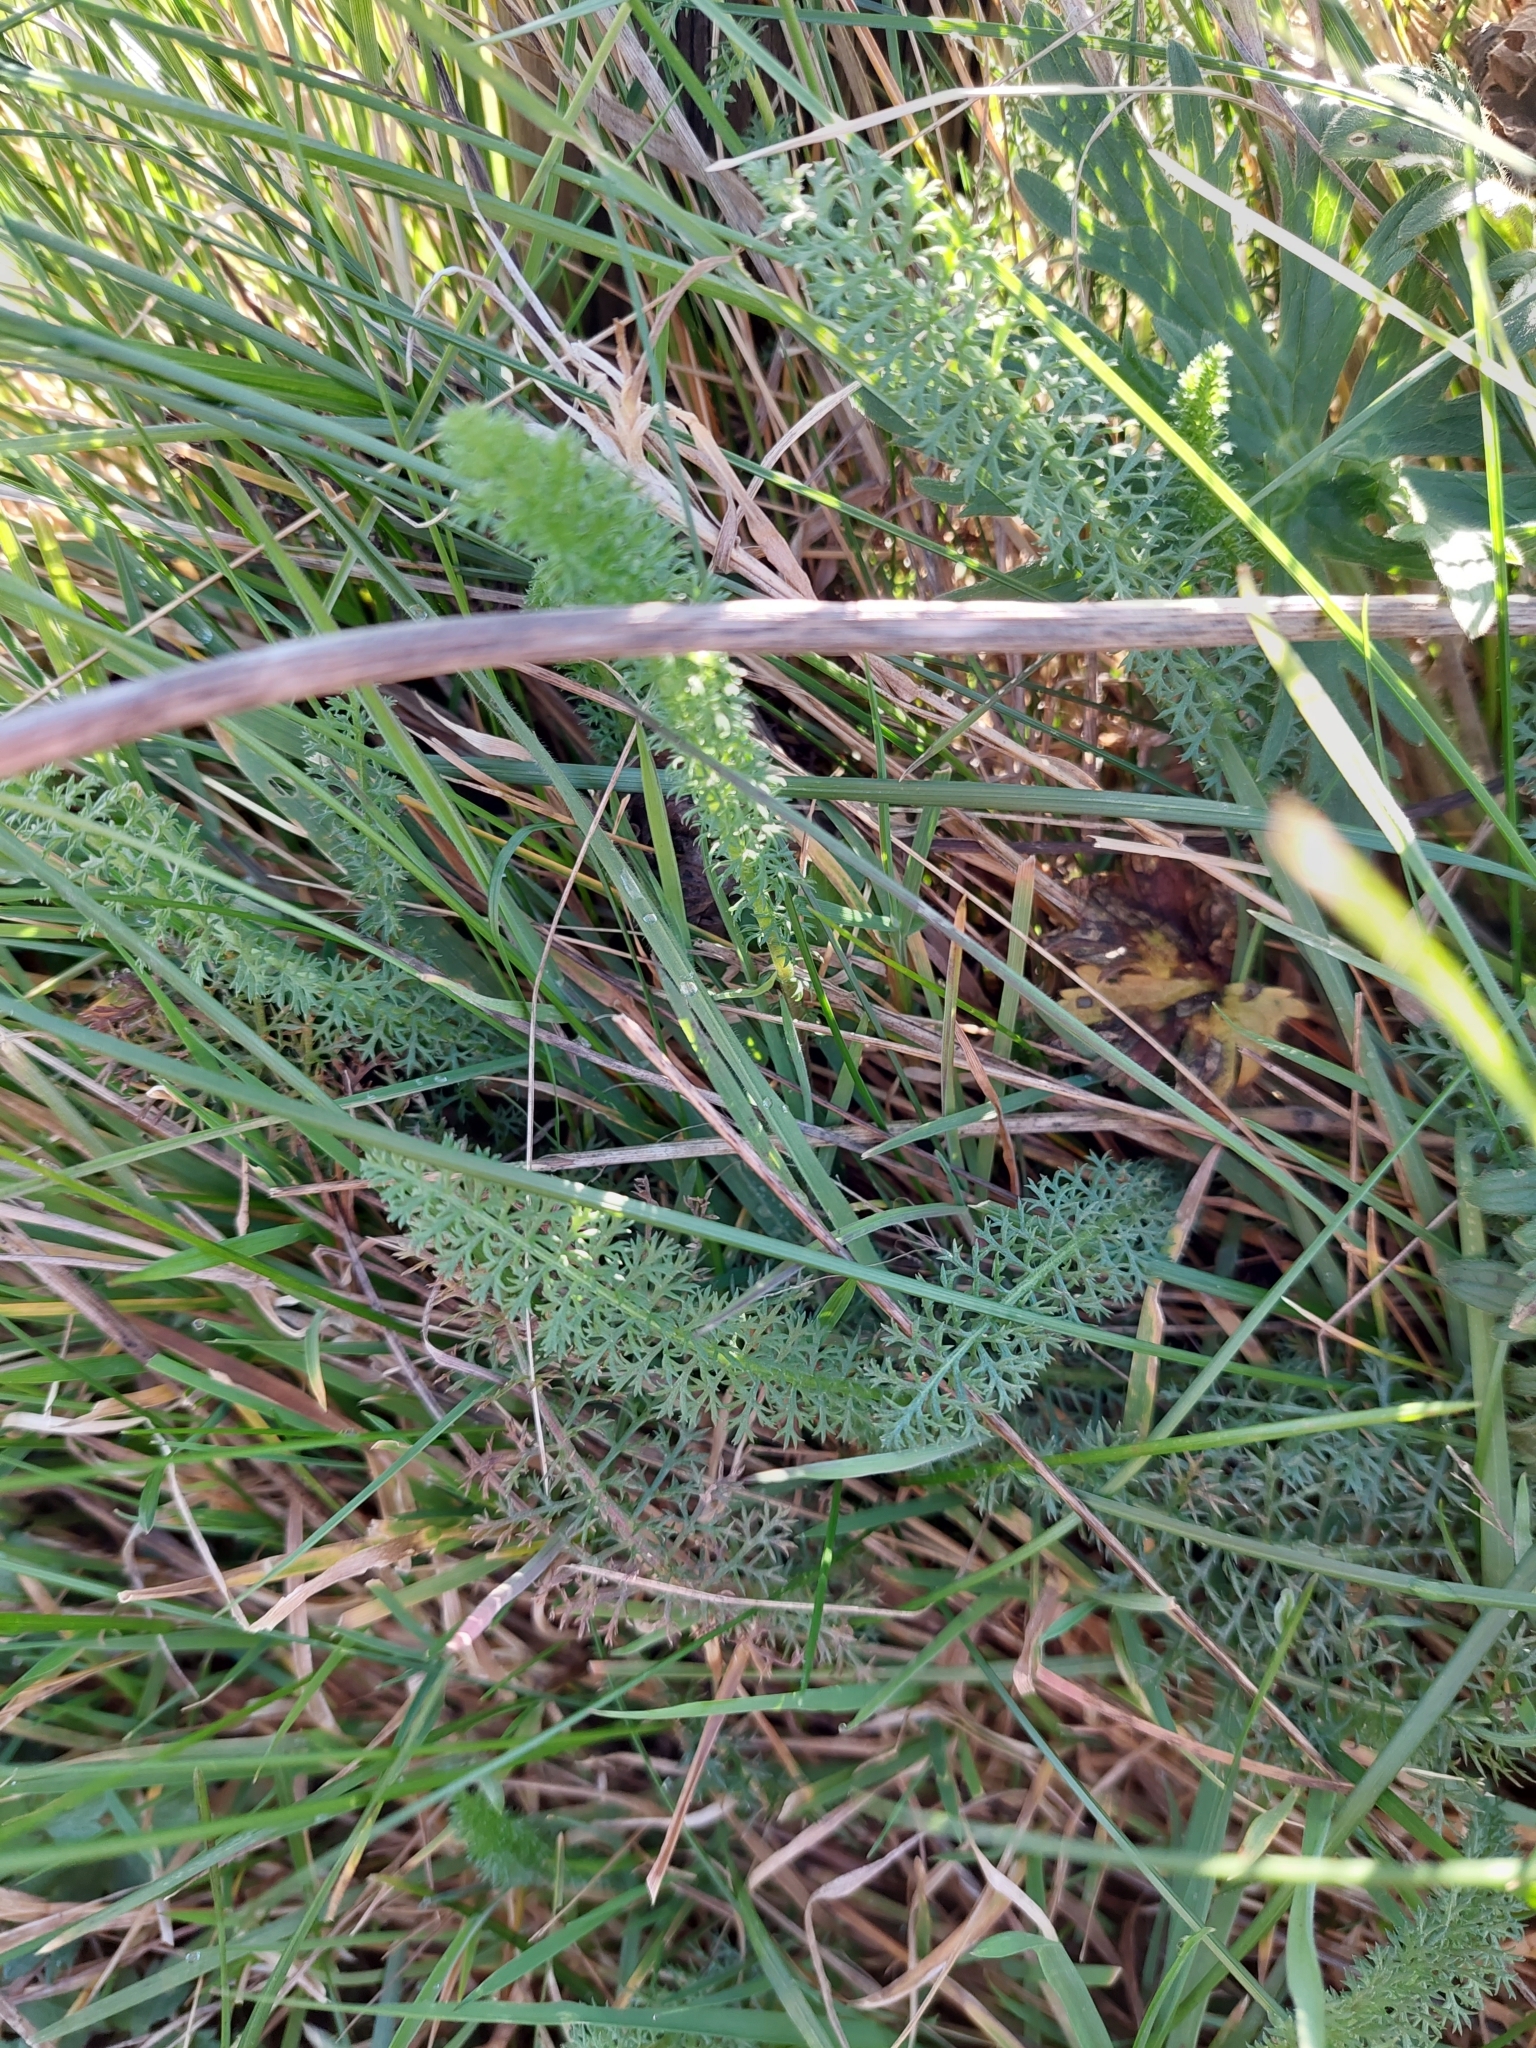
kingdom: Plantae
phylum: Tracheophyta
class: Magnoliopsida
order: Asterales
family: Asteraceae
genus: Achillea
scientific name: Achillea millefolium
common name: Yarrow
